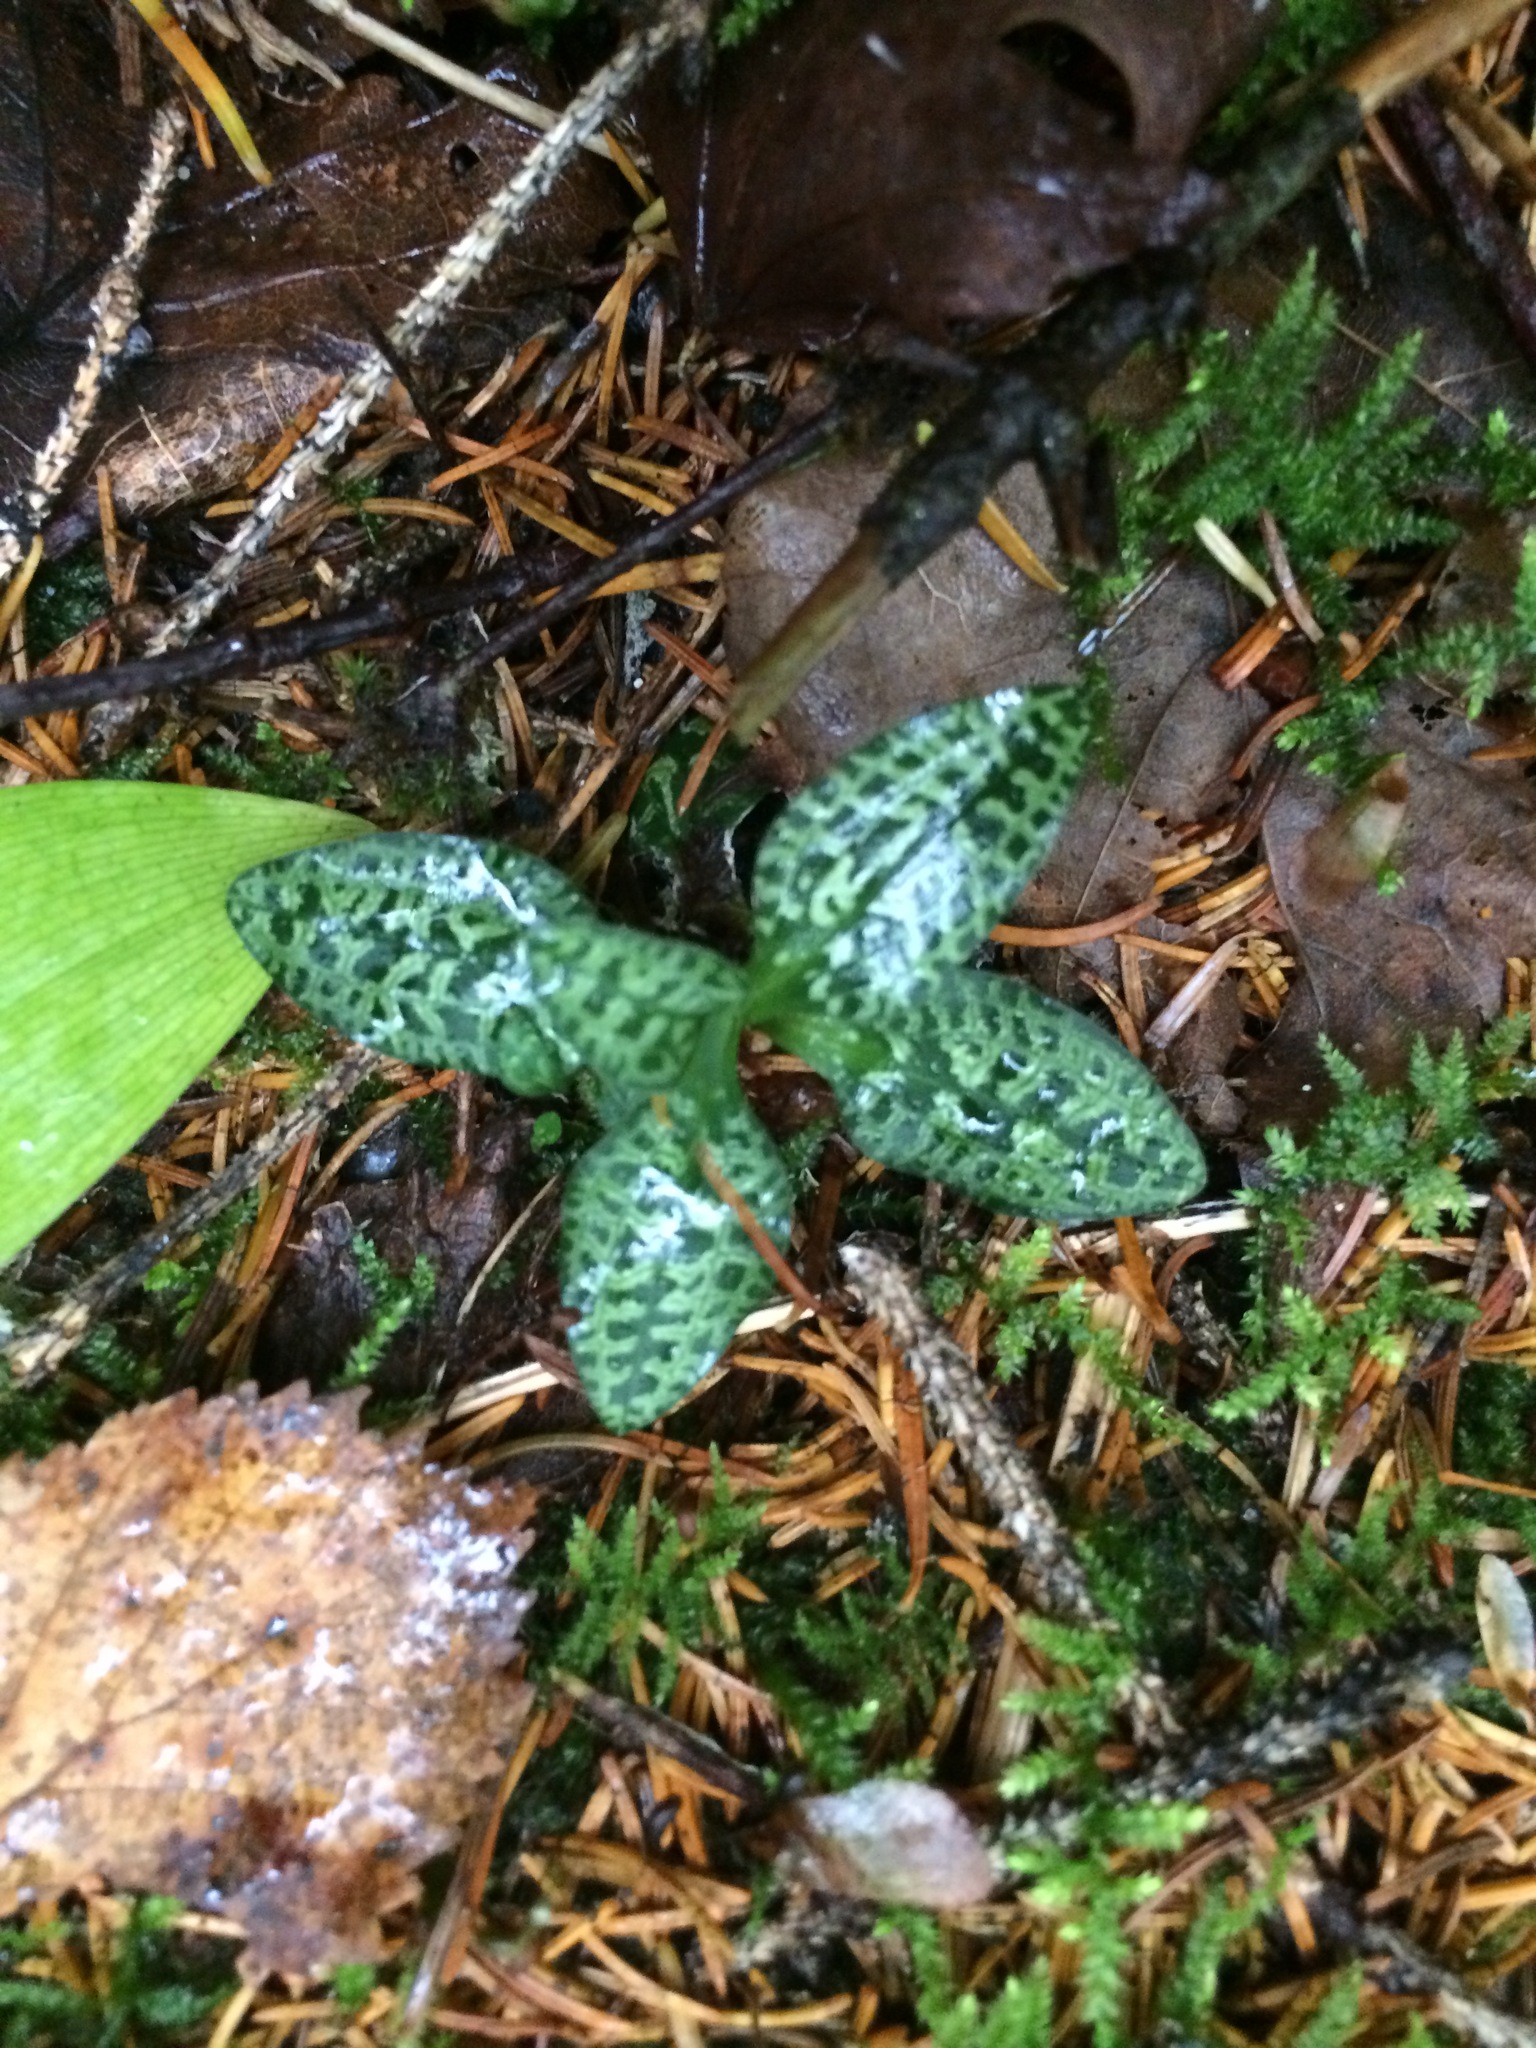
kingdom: Plantae
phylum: Tracheophyta
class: Liliopsida
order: Asparagales
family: Orchidaceae
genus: Goodyera
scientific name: Goodyera repens
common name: Creeping lady's-tresses
